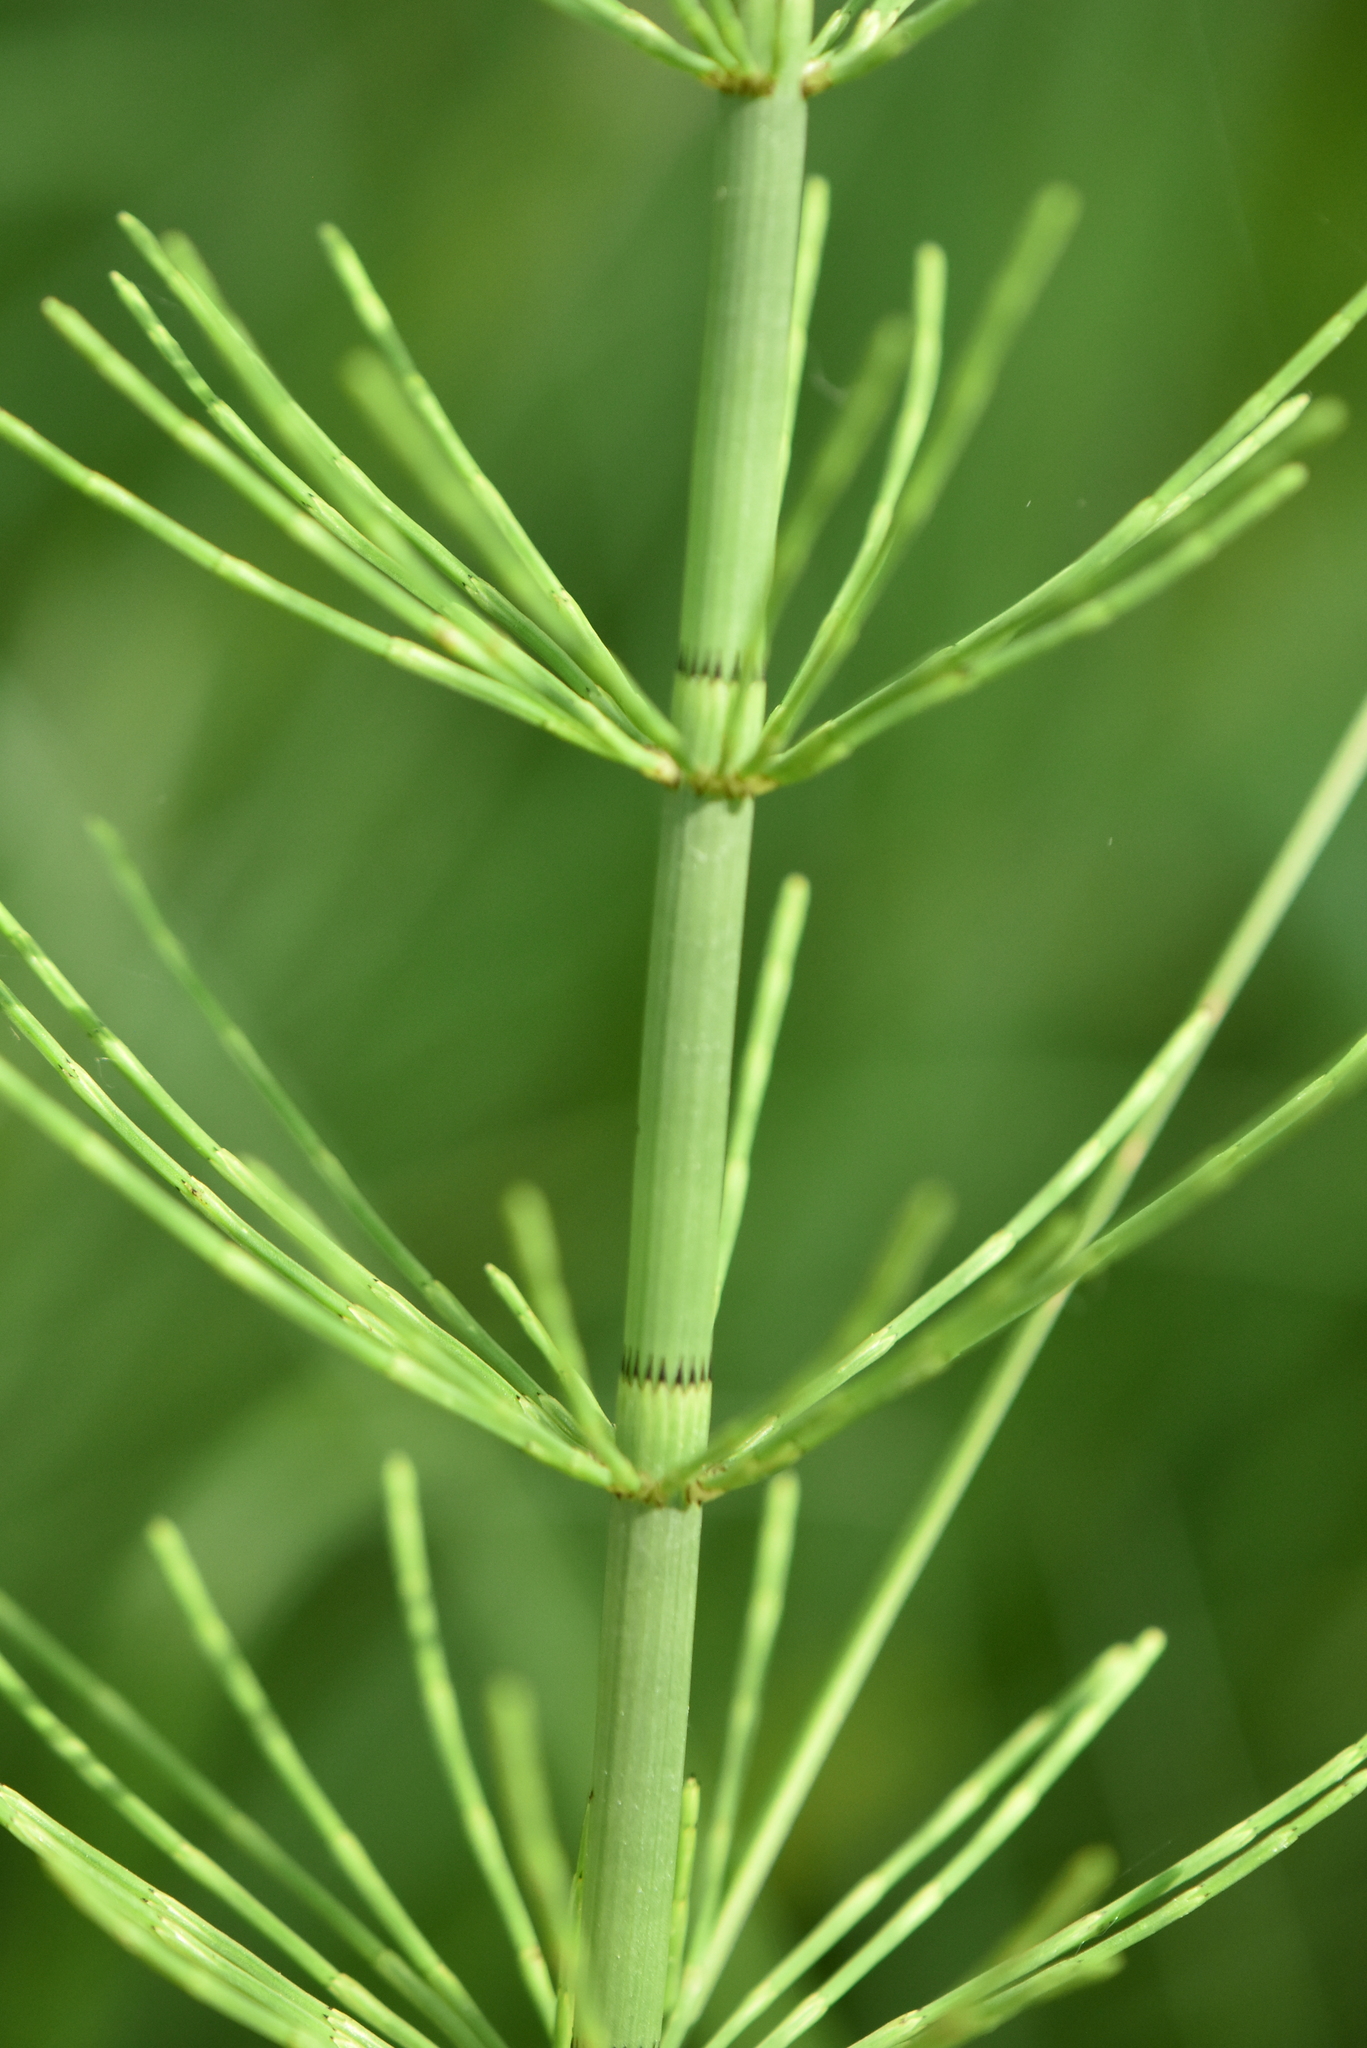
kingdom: Plantae
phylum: Tracheophyta
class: Polypodiopsida
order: Equisetales
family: Equisetaceae
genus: Equisetum
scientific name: Equisetum fluviatile
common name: Water horsetail
